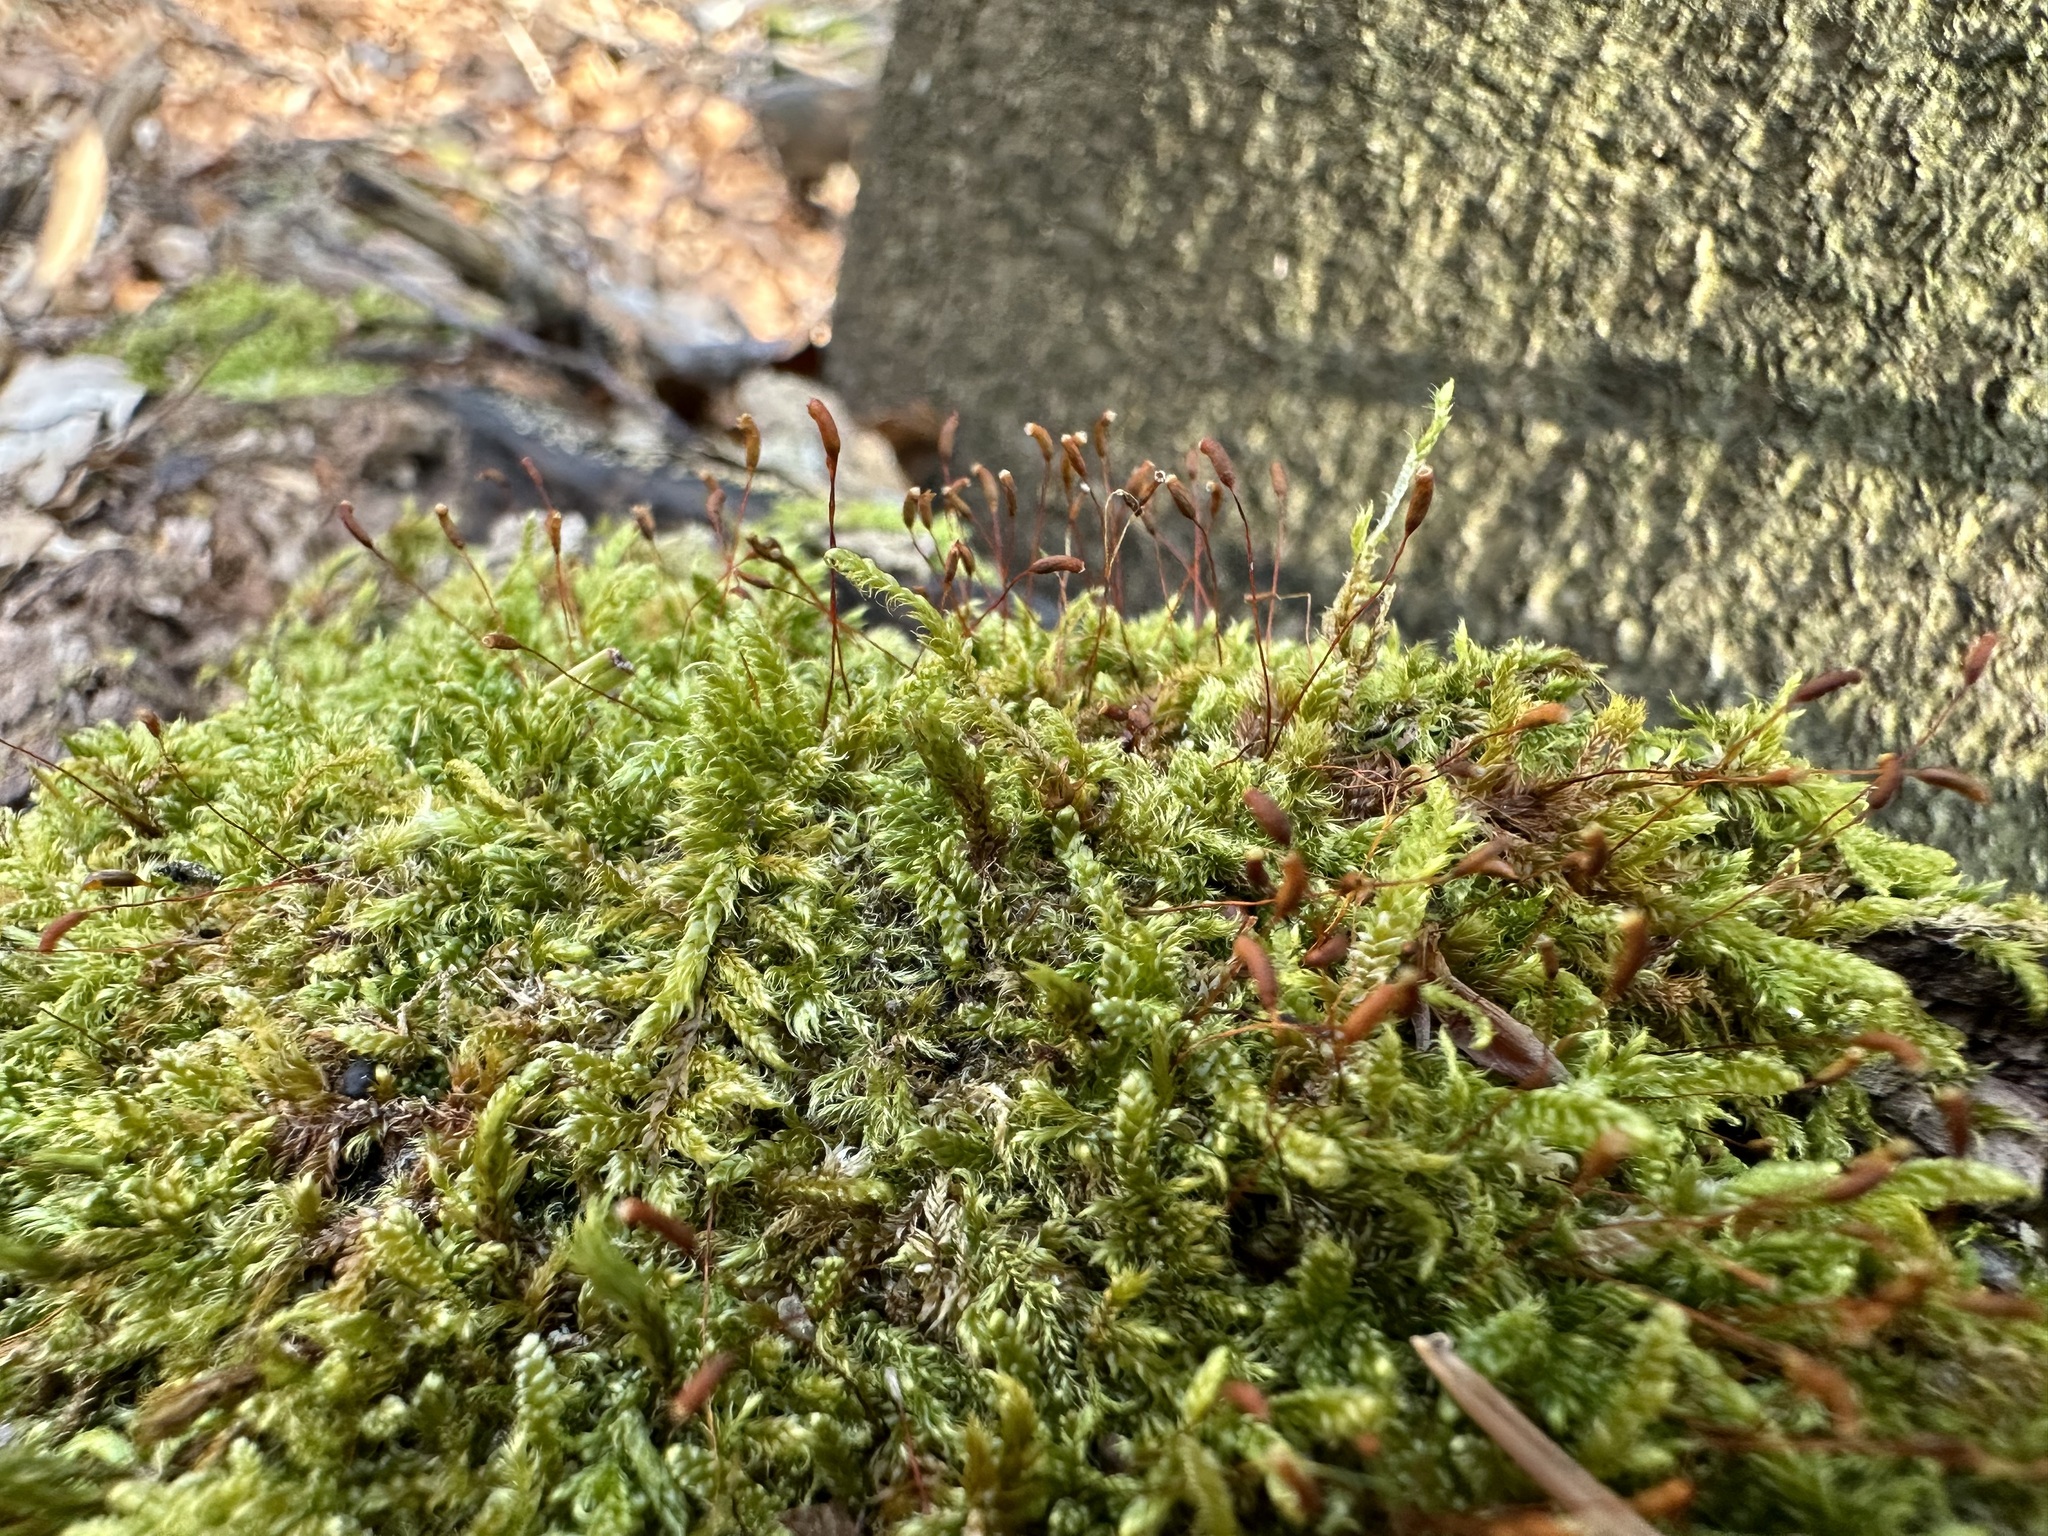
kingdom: Plantae
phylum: Bryophyta
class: Bryopsida
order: Hypnales
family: Hypnaceae
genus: Hypnum
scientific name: Hypnum cupressiforme
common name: Cypress-leaved plait-moss
